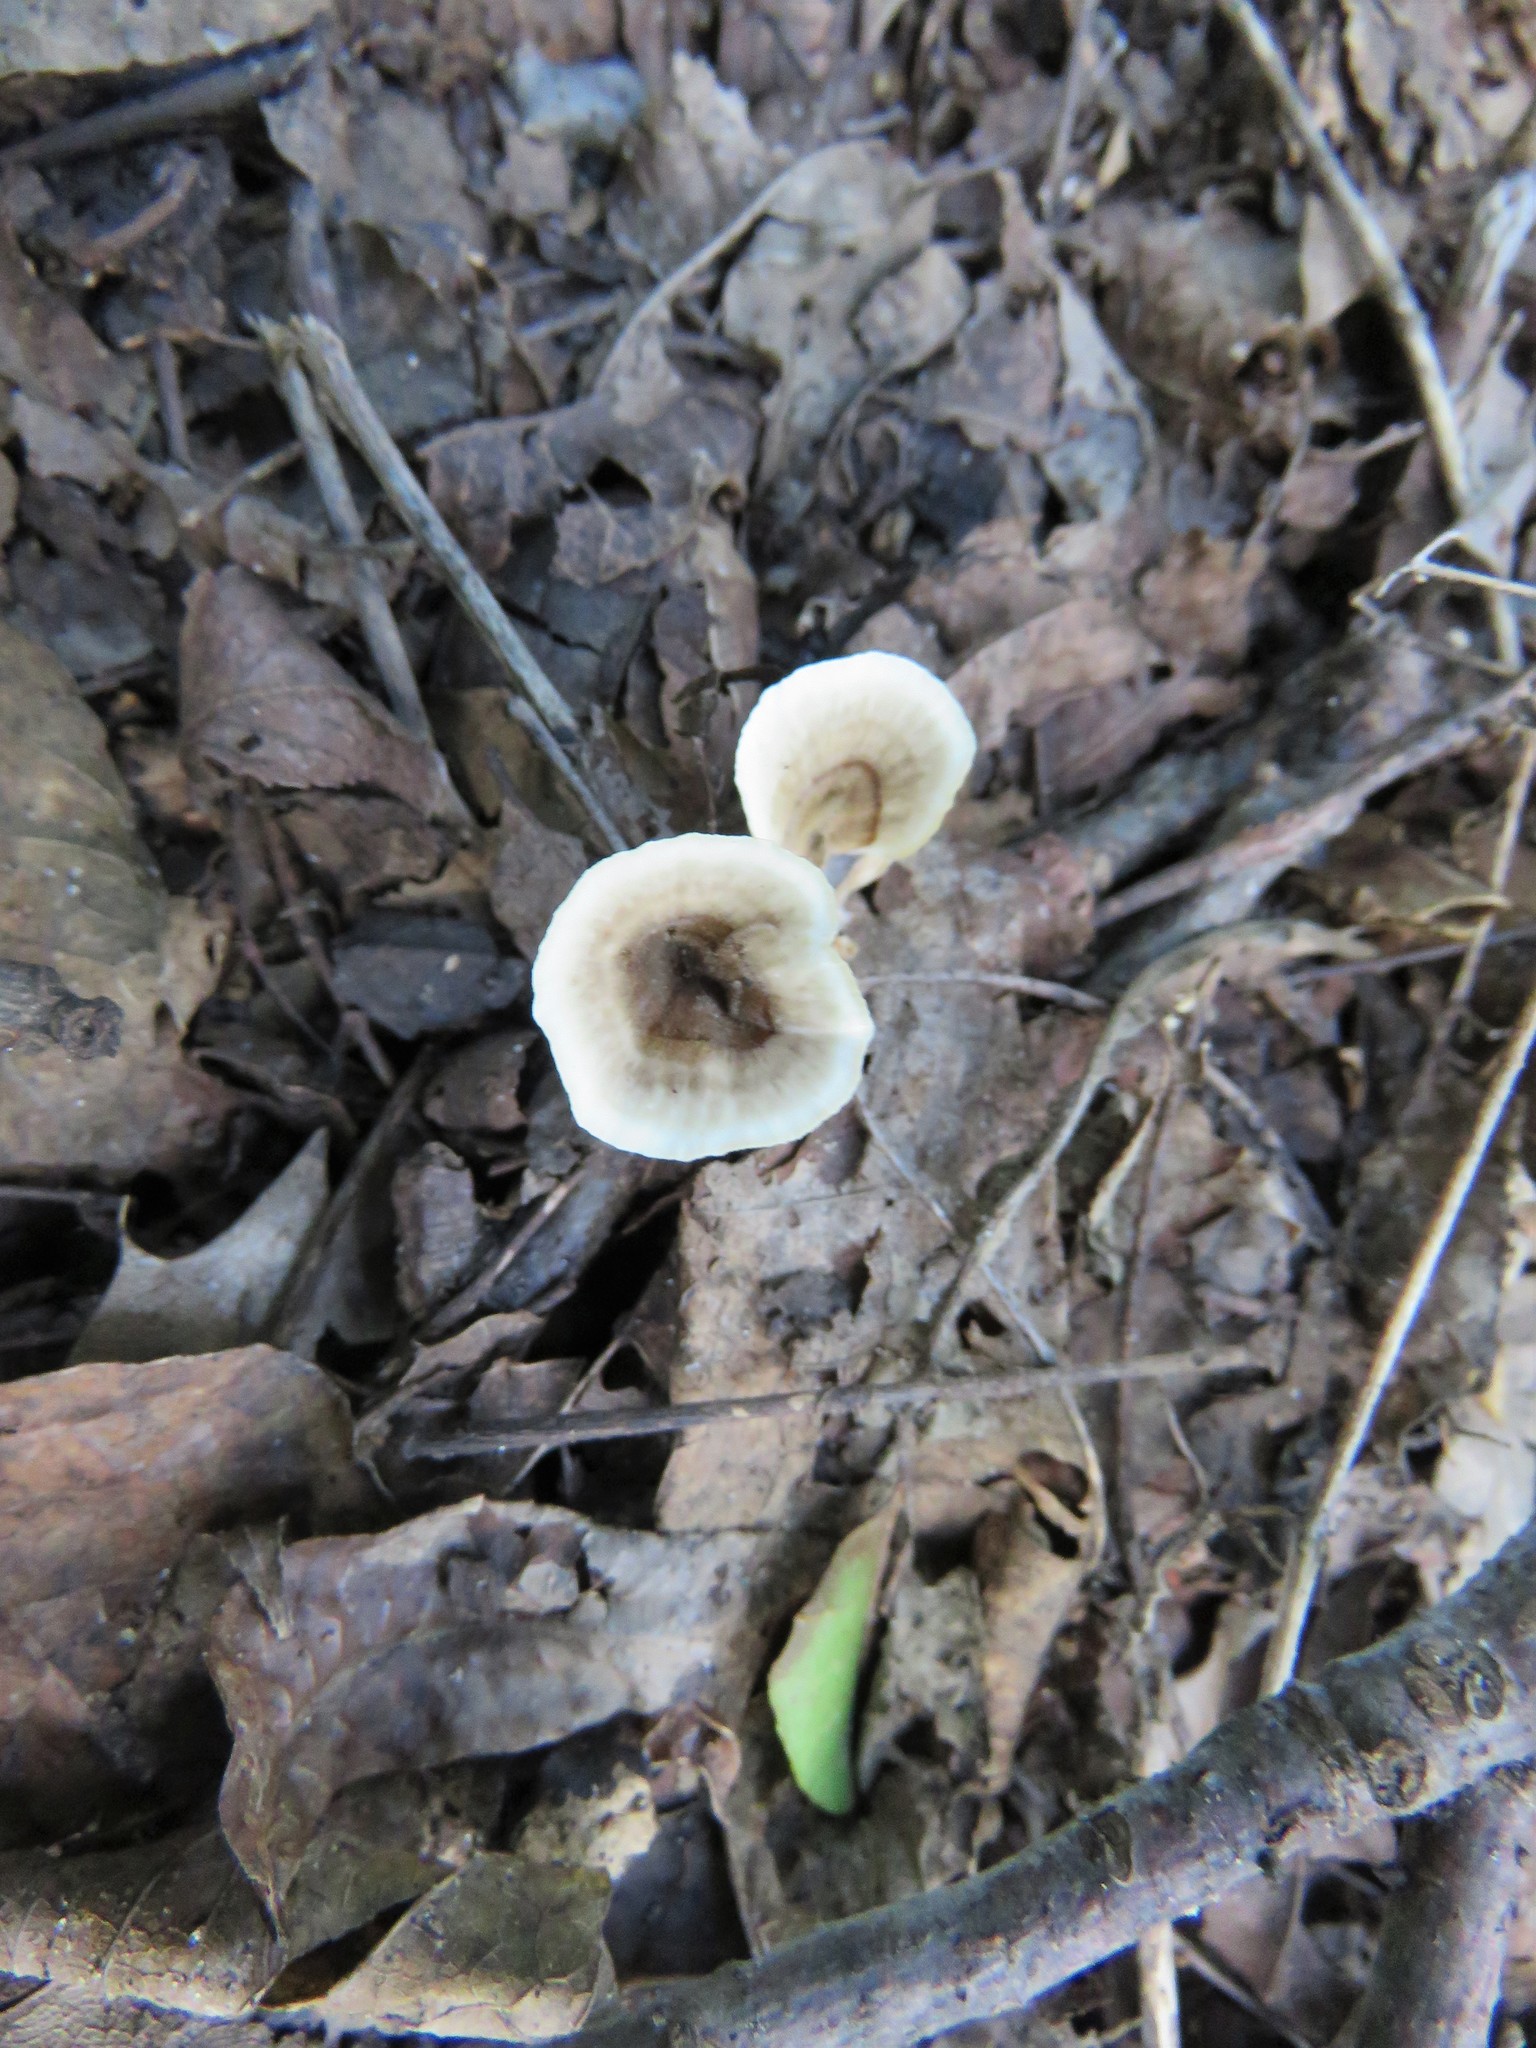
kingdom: Fungi
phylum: Basidiomycota
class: Agaricomycetes
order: Polyporales
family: Polyporaceae
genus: Poronidulus
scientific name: Poronidulus conchifer
